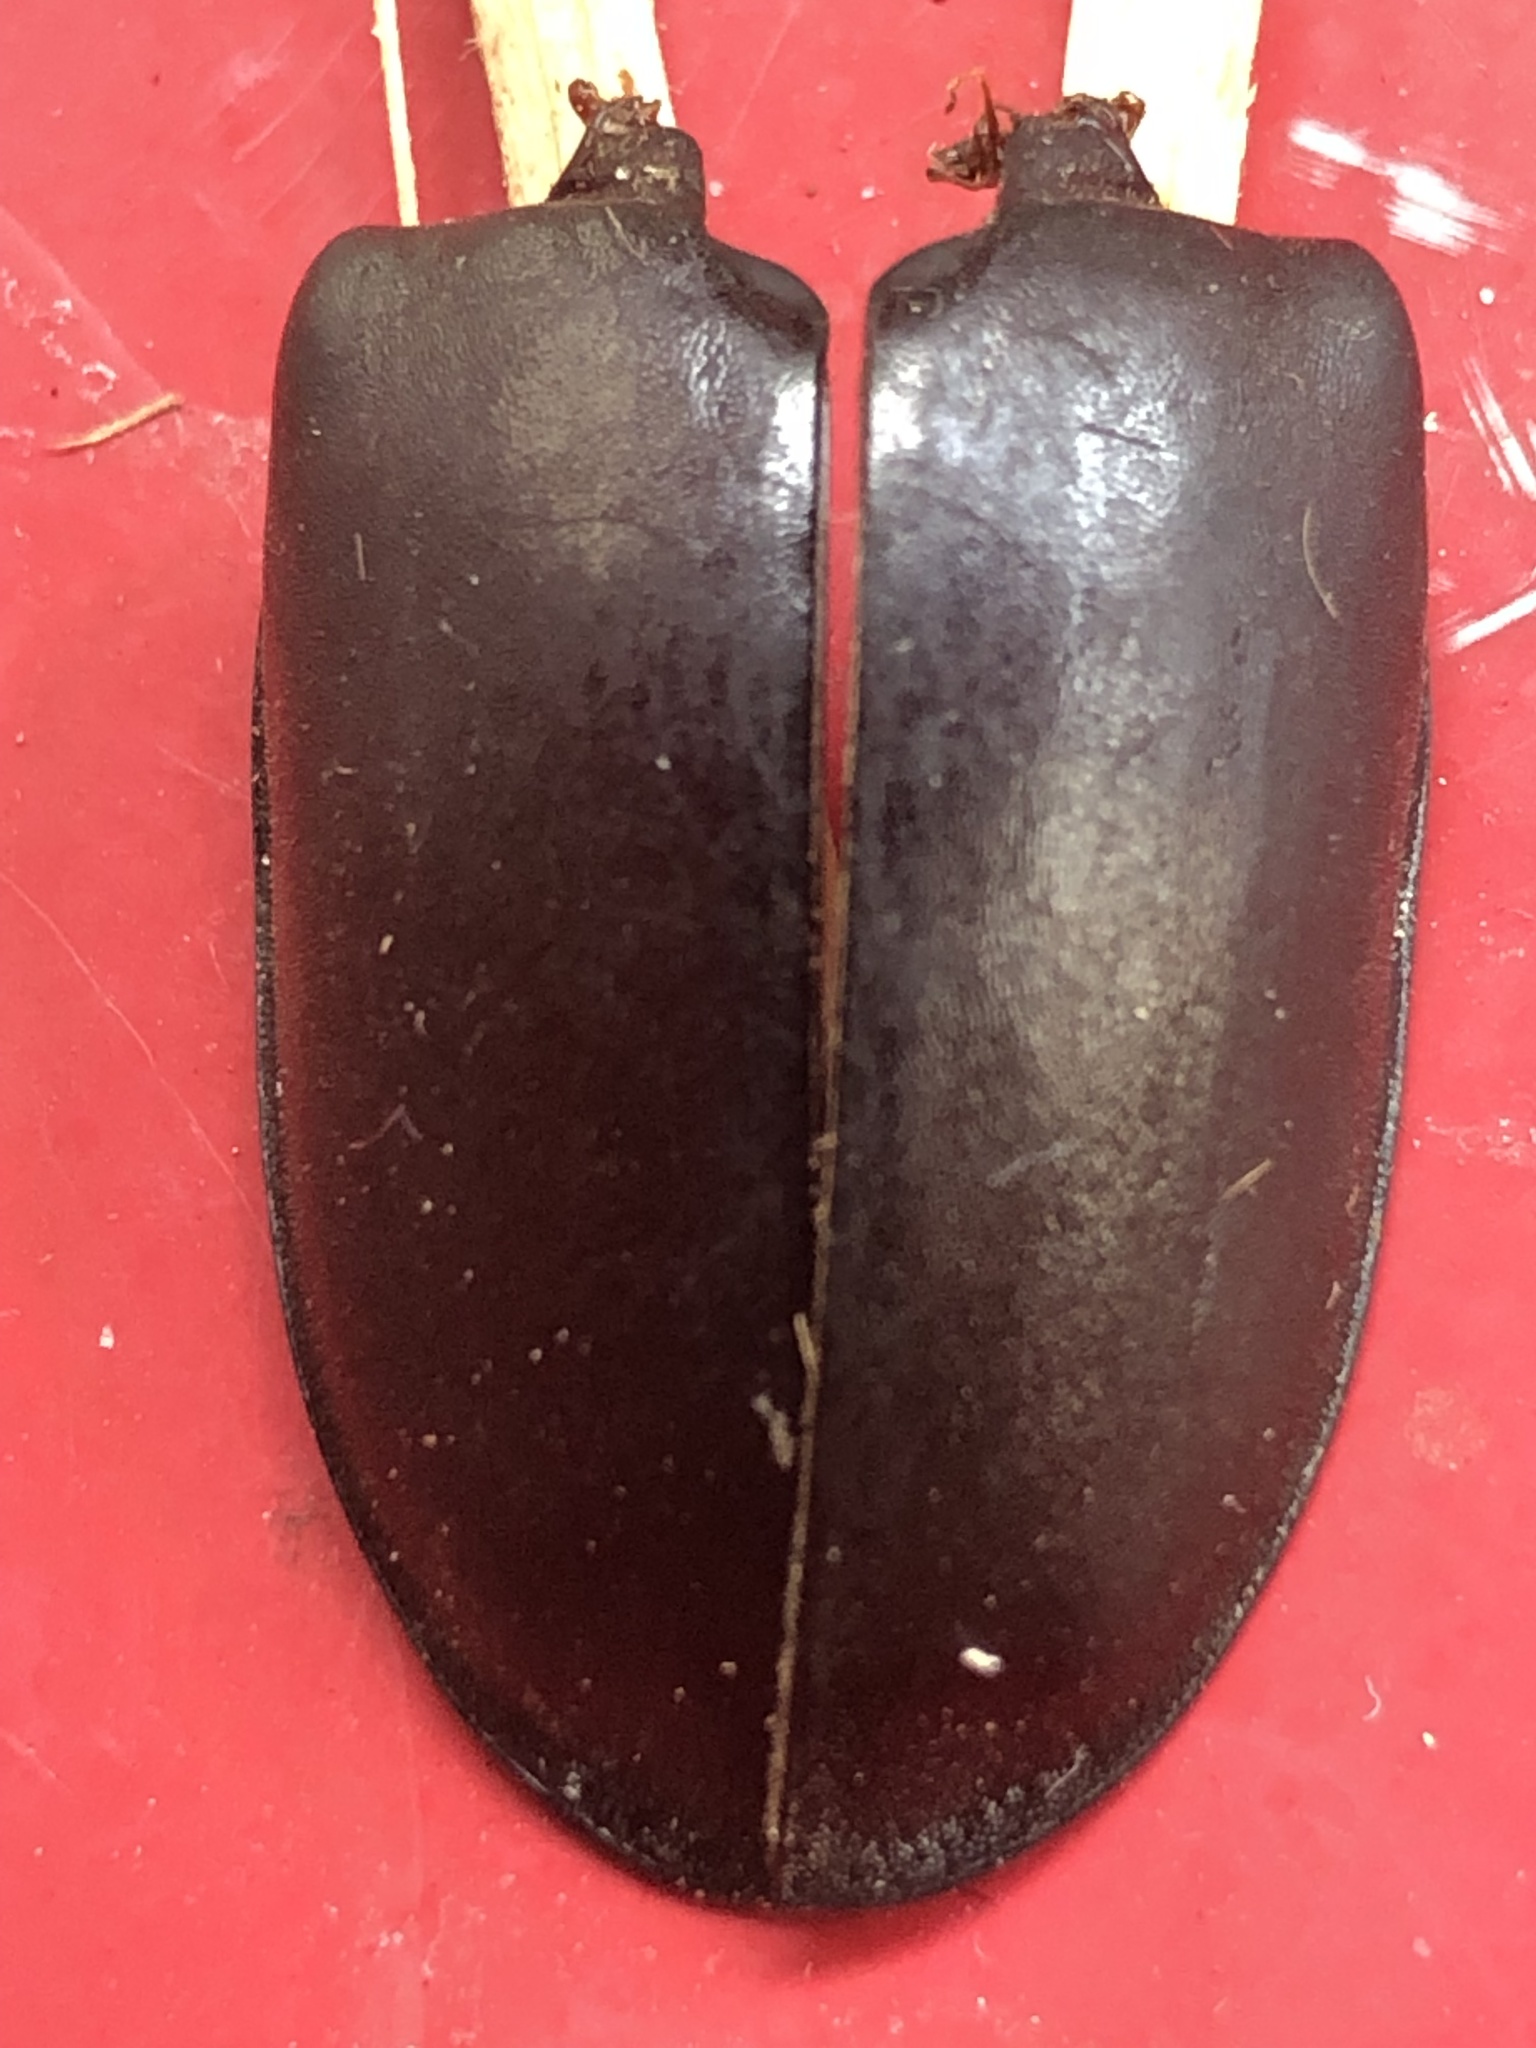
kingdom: Animalia
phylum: Arthropoda
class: Insecta
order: Coleoptera
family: Lucanidae
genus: Lucanus
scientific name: Lucanus cervus
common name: Stag beetle
